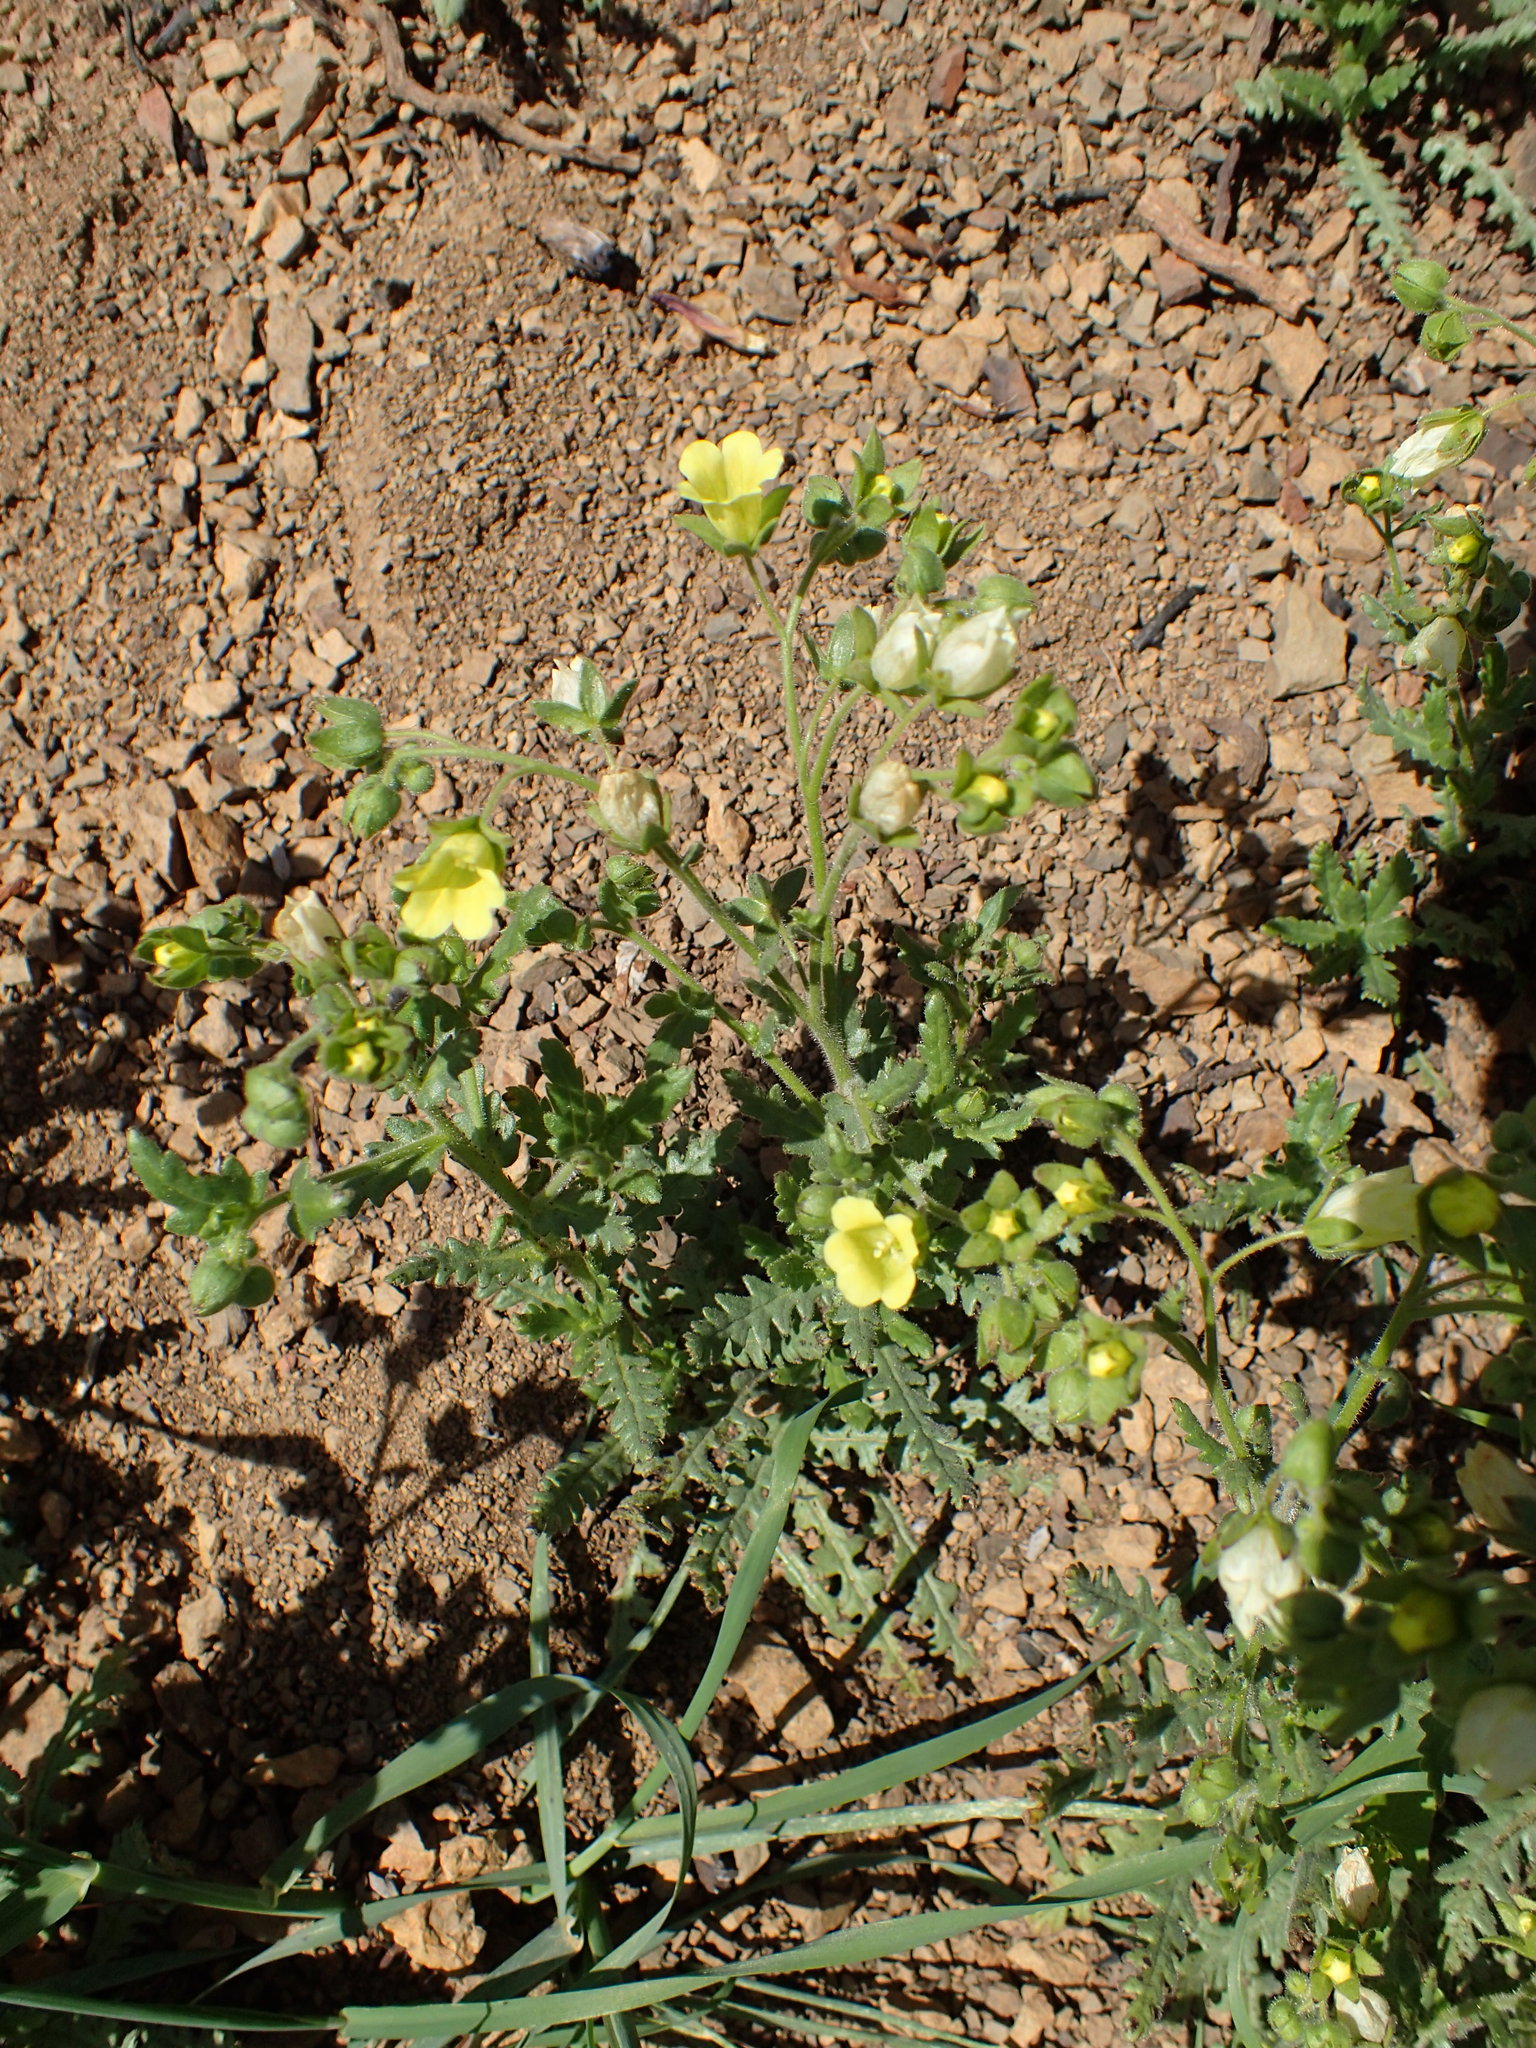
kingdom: Plantae
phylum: Tracheophyta
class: Magnoliopsida
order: Boraginales
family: Hydrophyllaceae
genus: Emmenanthe
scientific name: Emmenanthe penduliflora
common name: Whispering-bells
